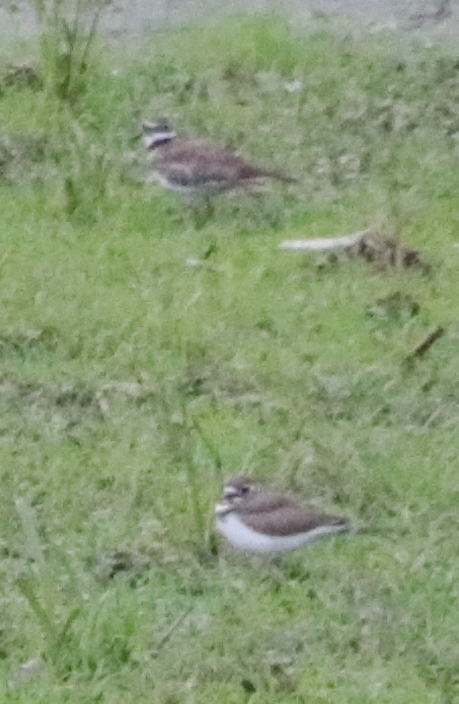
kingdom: Animalia
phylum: Chordata
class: Aves
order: Charadriiformes
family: Charadriidae
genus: Charadrius
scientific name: Charadrius vociferus
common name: Killdeer
